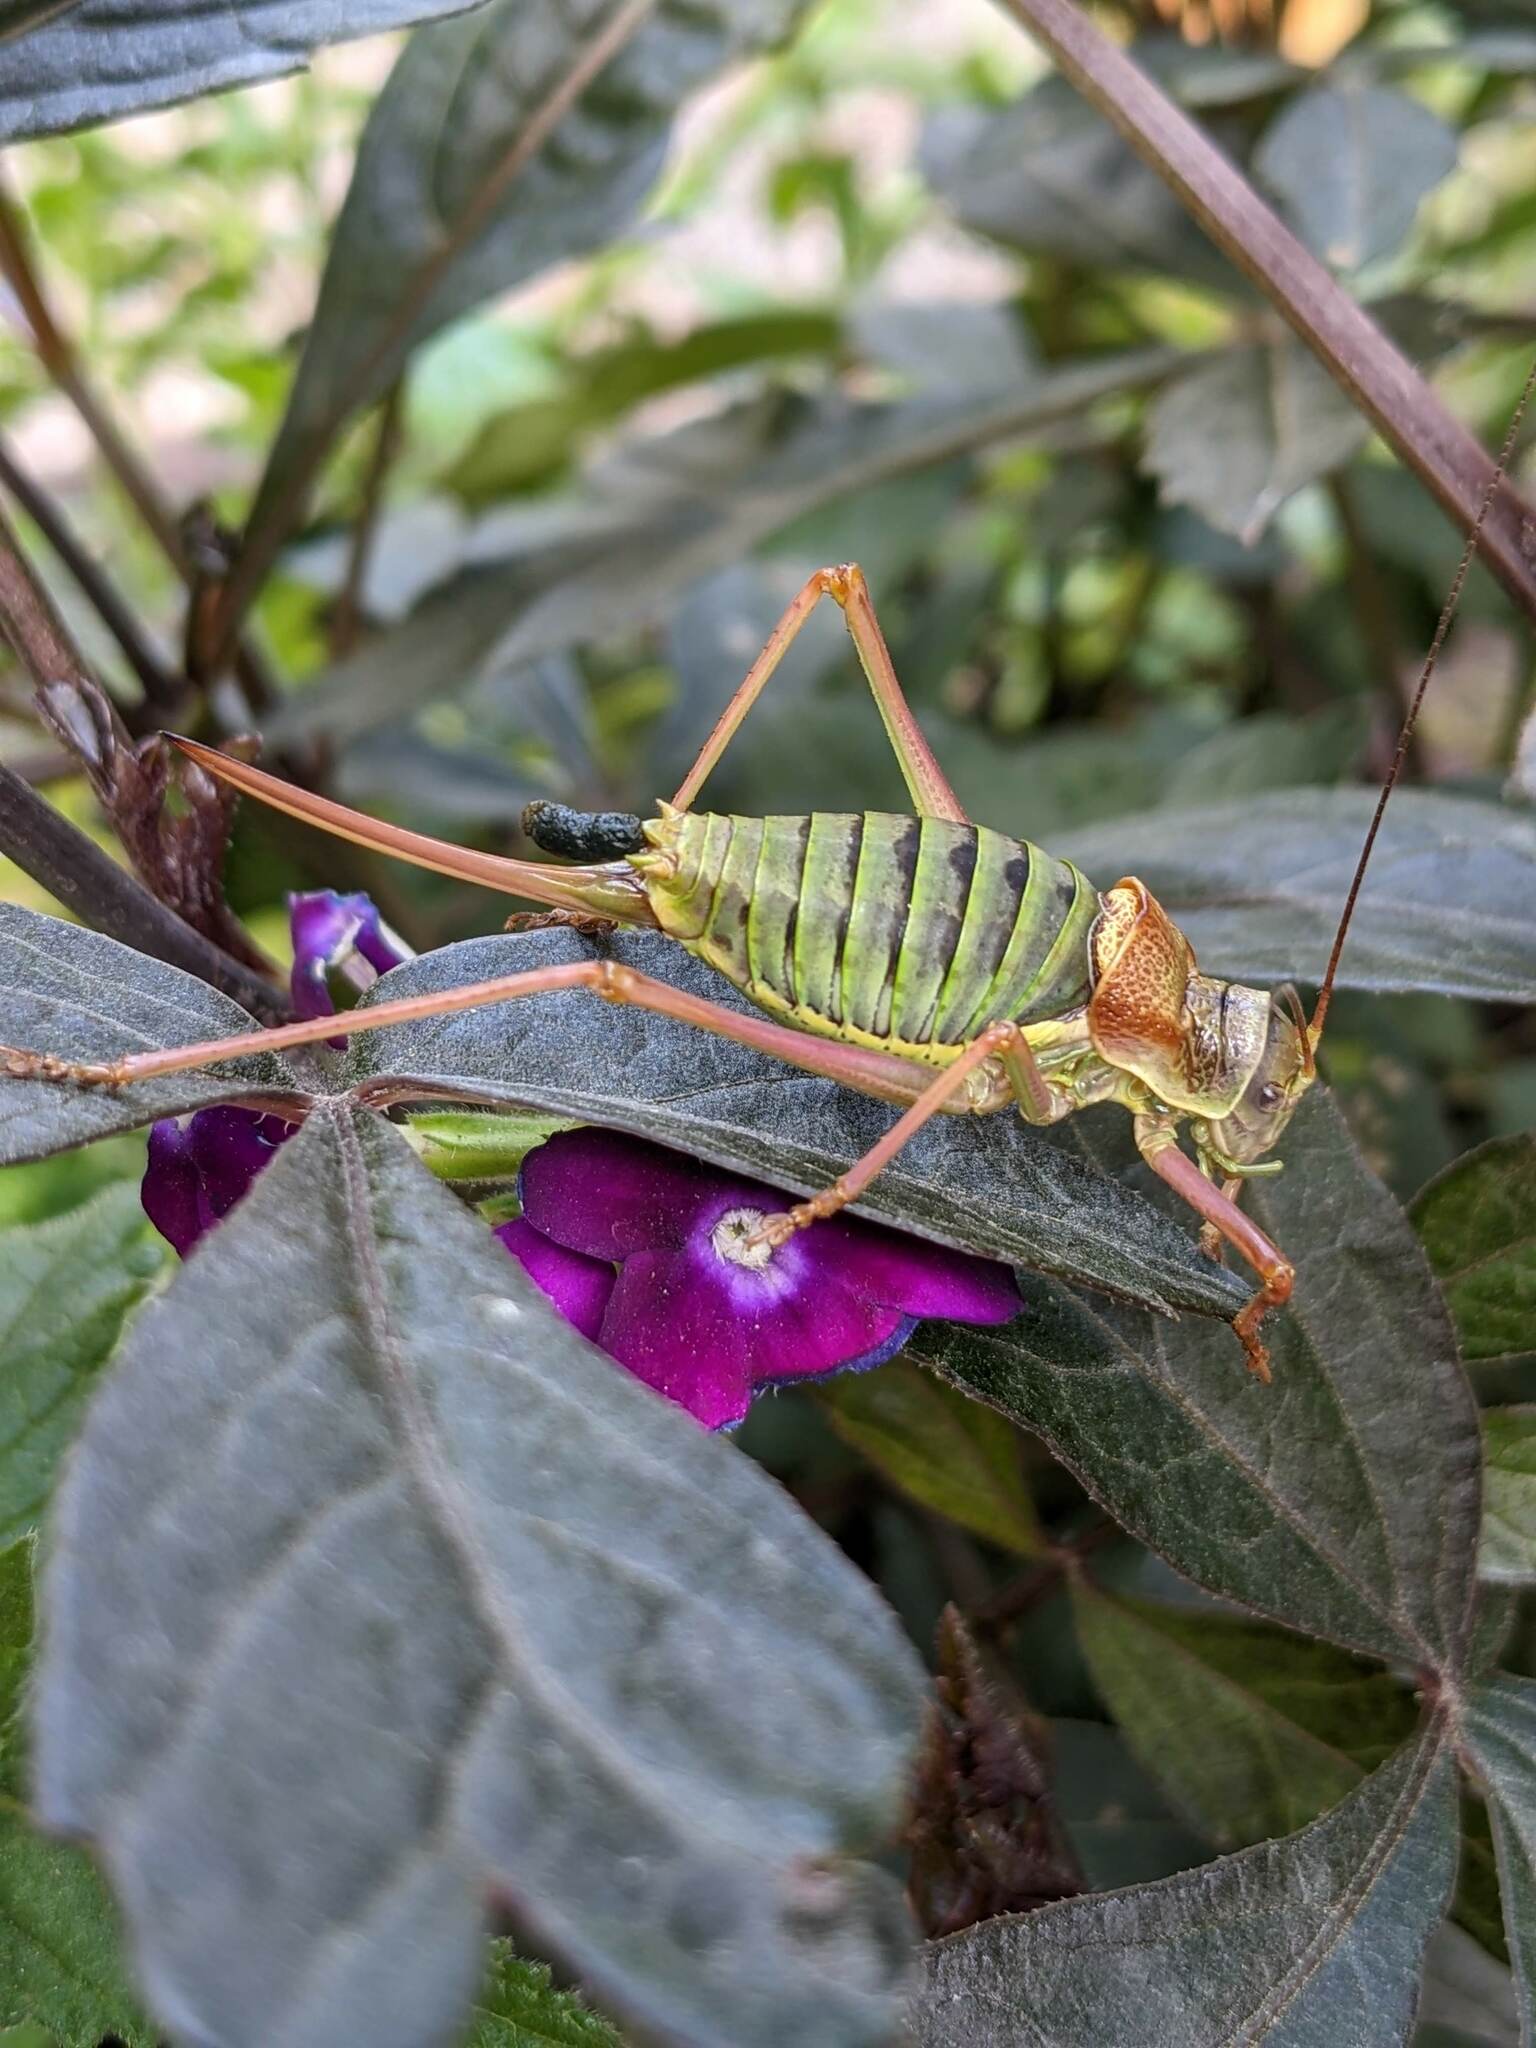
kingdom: Animalia
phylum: Arthropoda
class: Insecta
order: Orthoptera
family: Tettigoniidae
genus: Ephippiger
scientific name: Ephippiger diurnus
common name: Western saddle bush-cricket
